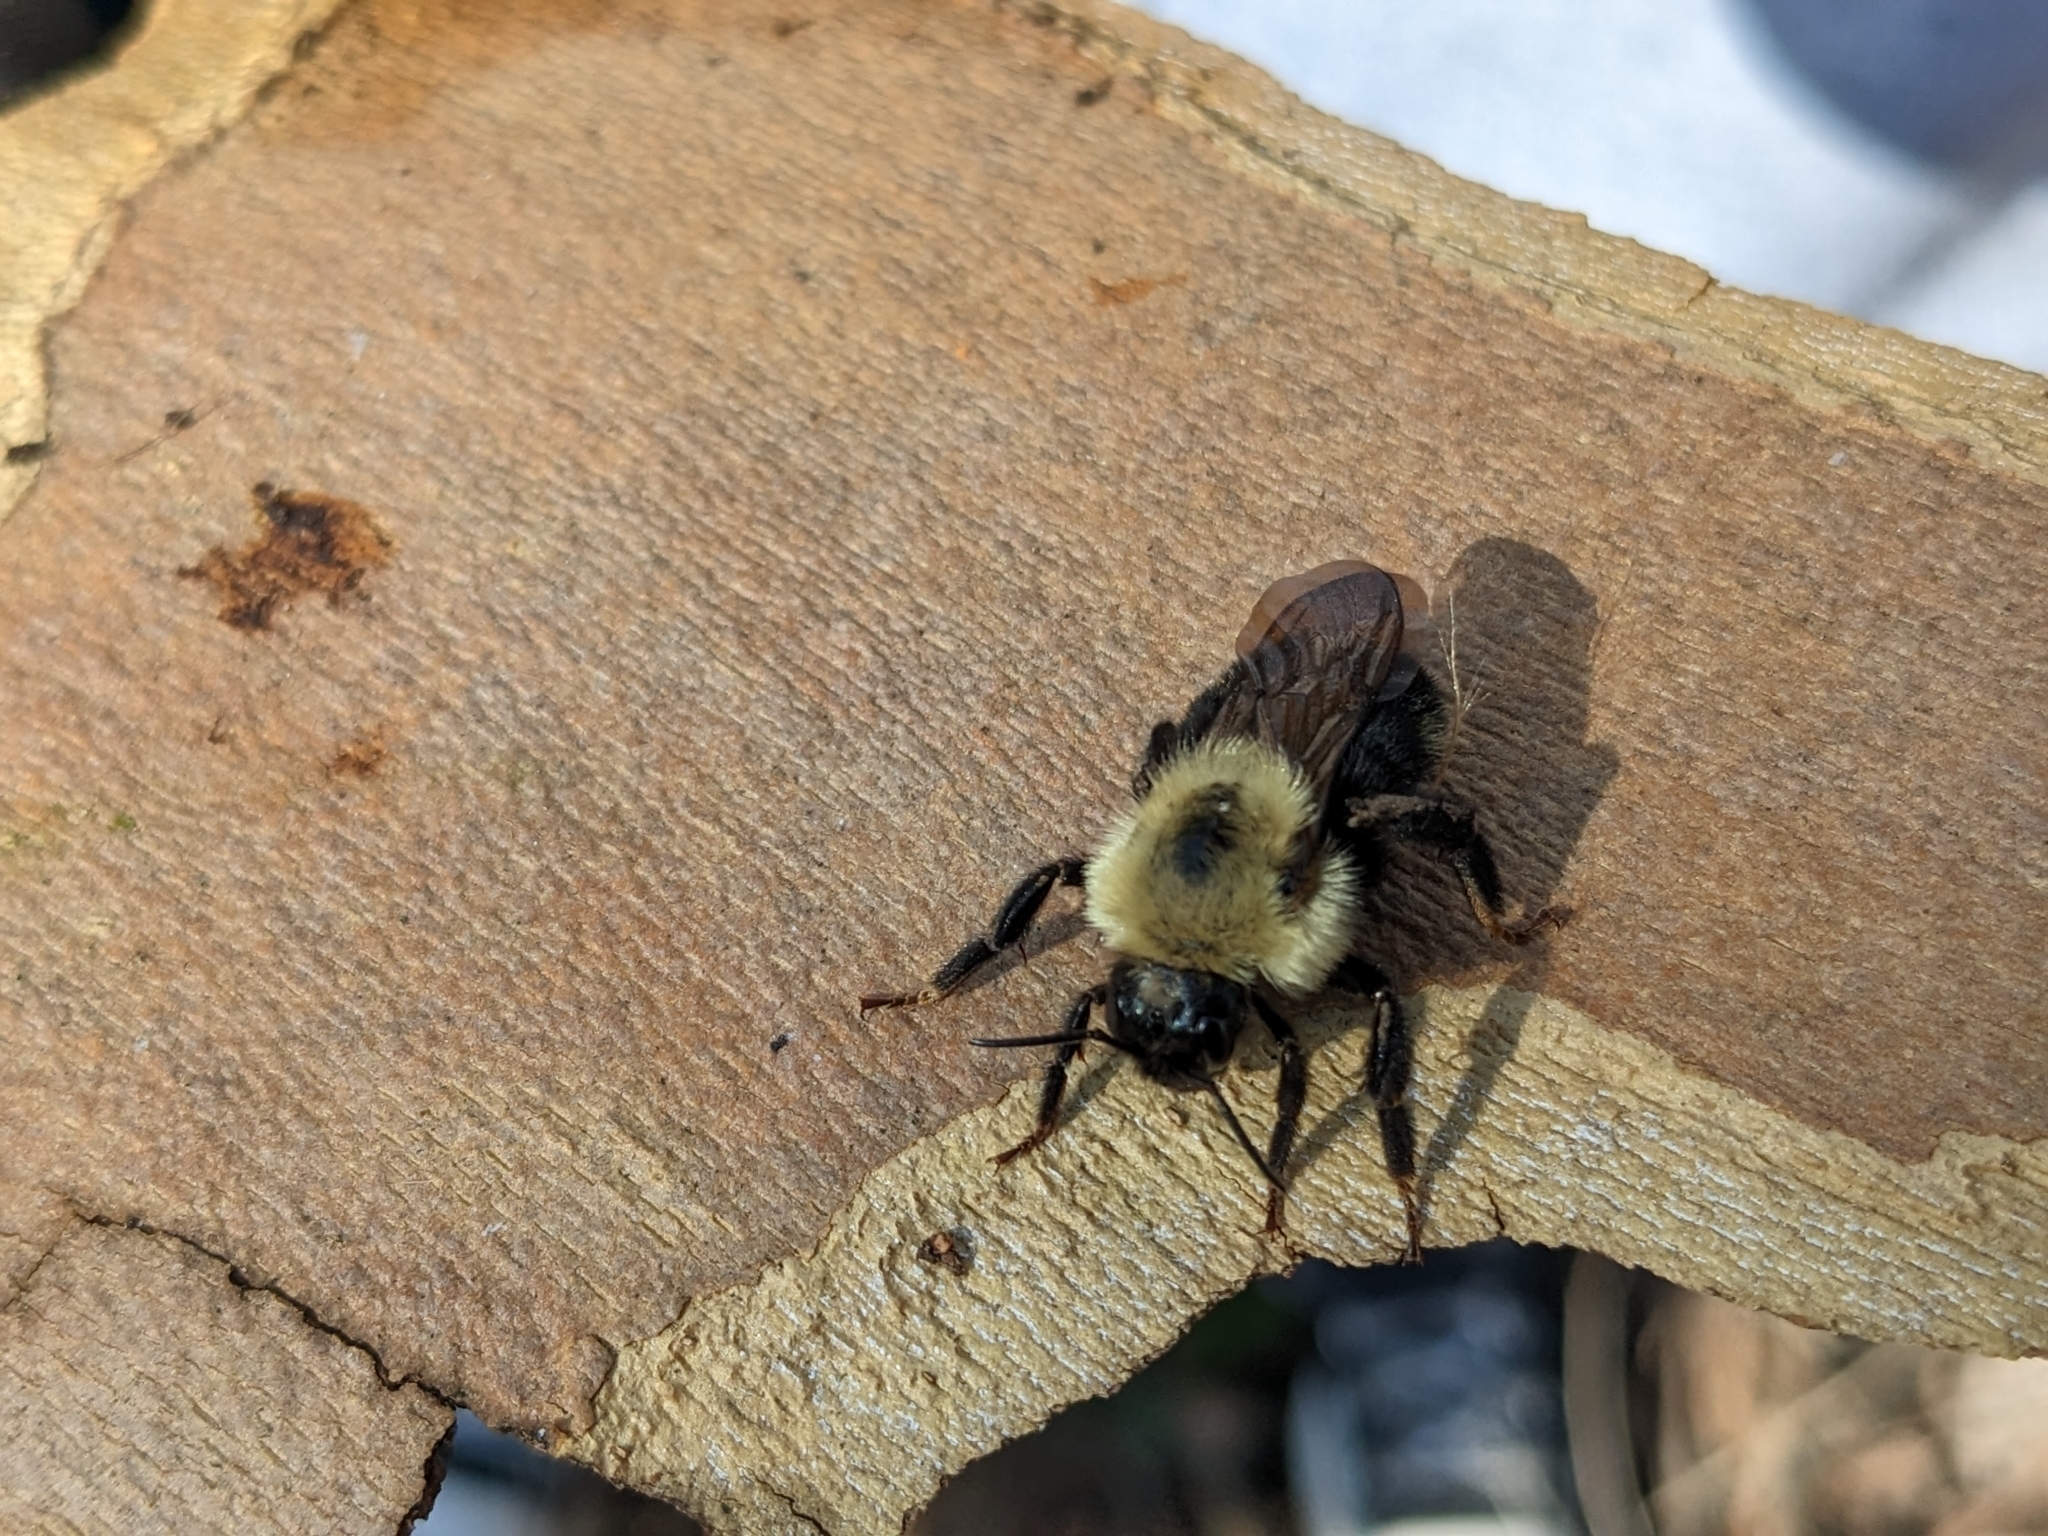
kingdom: Animalia
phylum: Arthropoda
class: Insecta
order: Hymenoptera
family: Apidae
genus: Bombus
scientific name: Bombus citrinus
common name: Lemon cuckoo bumble bee
